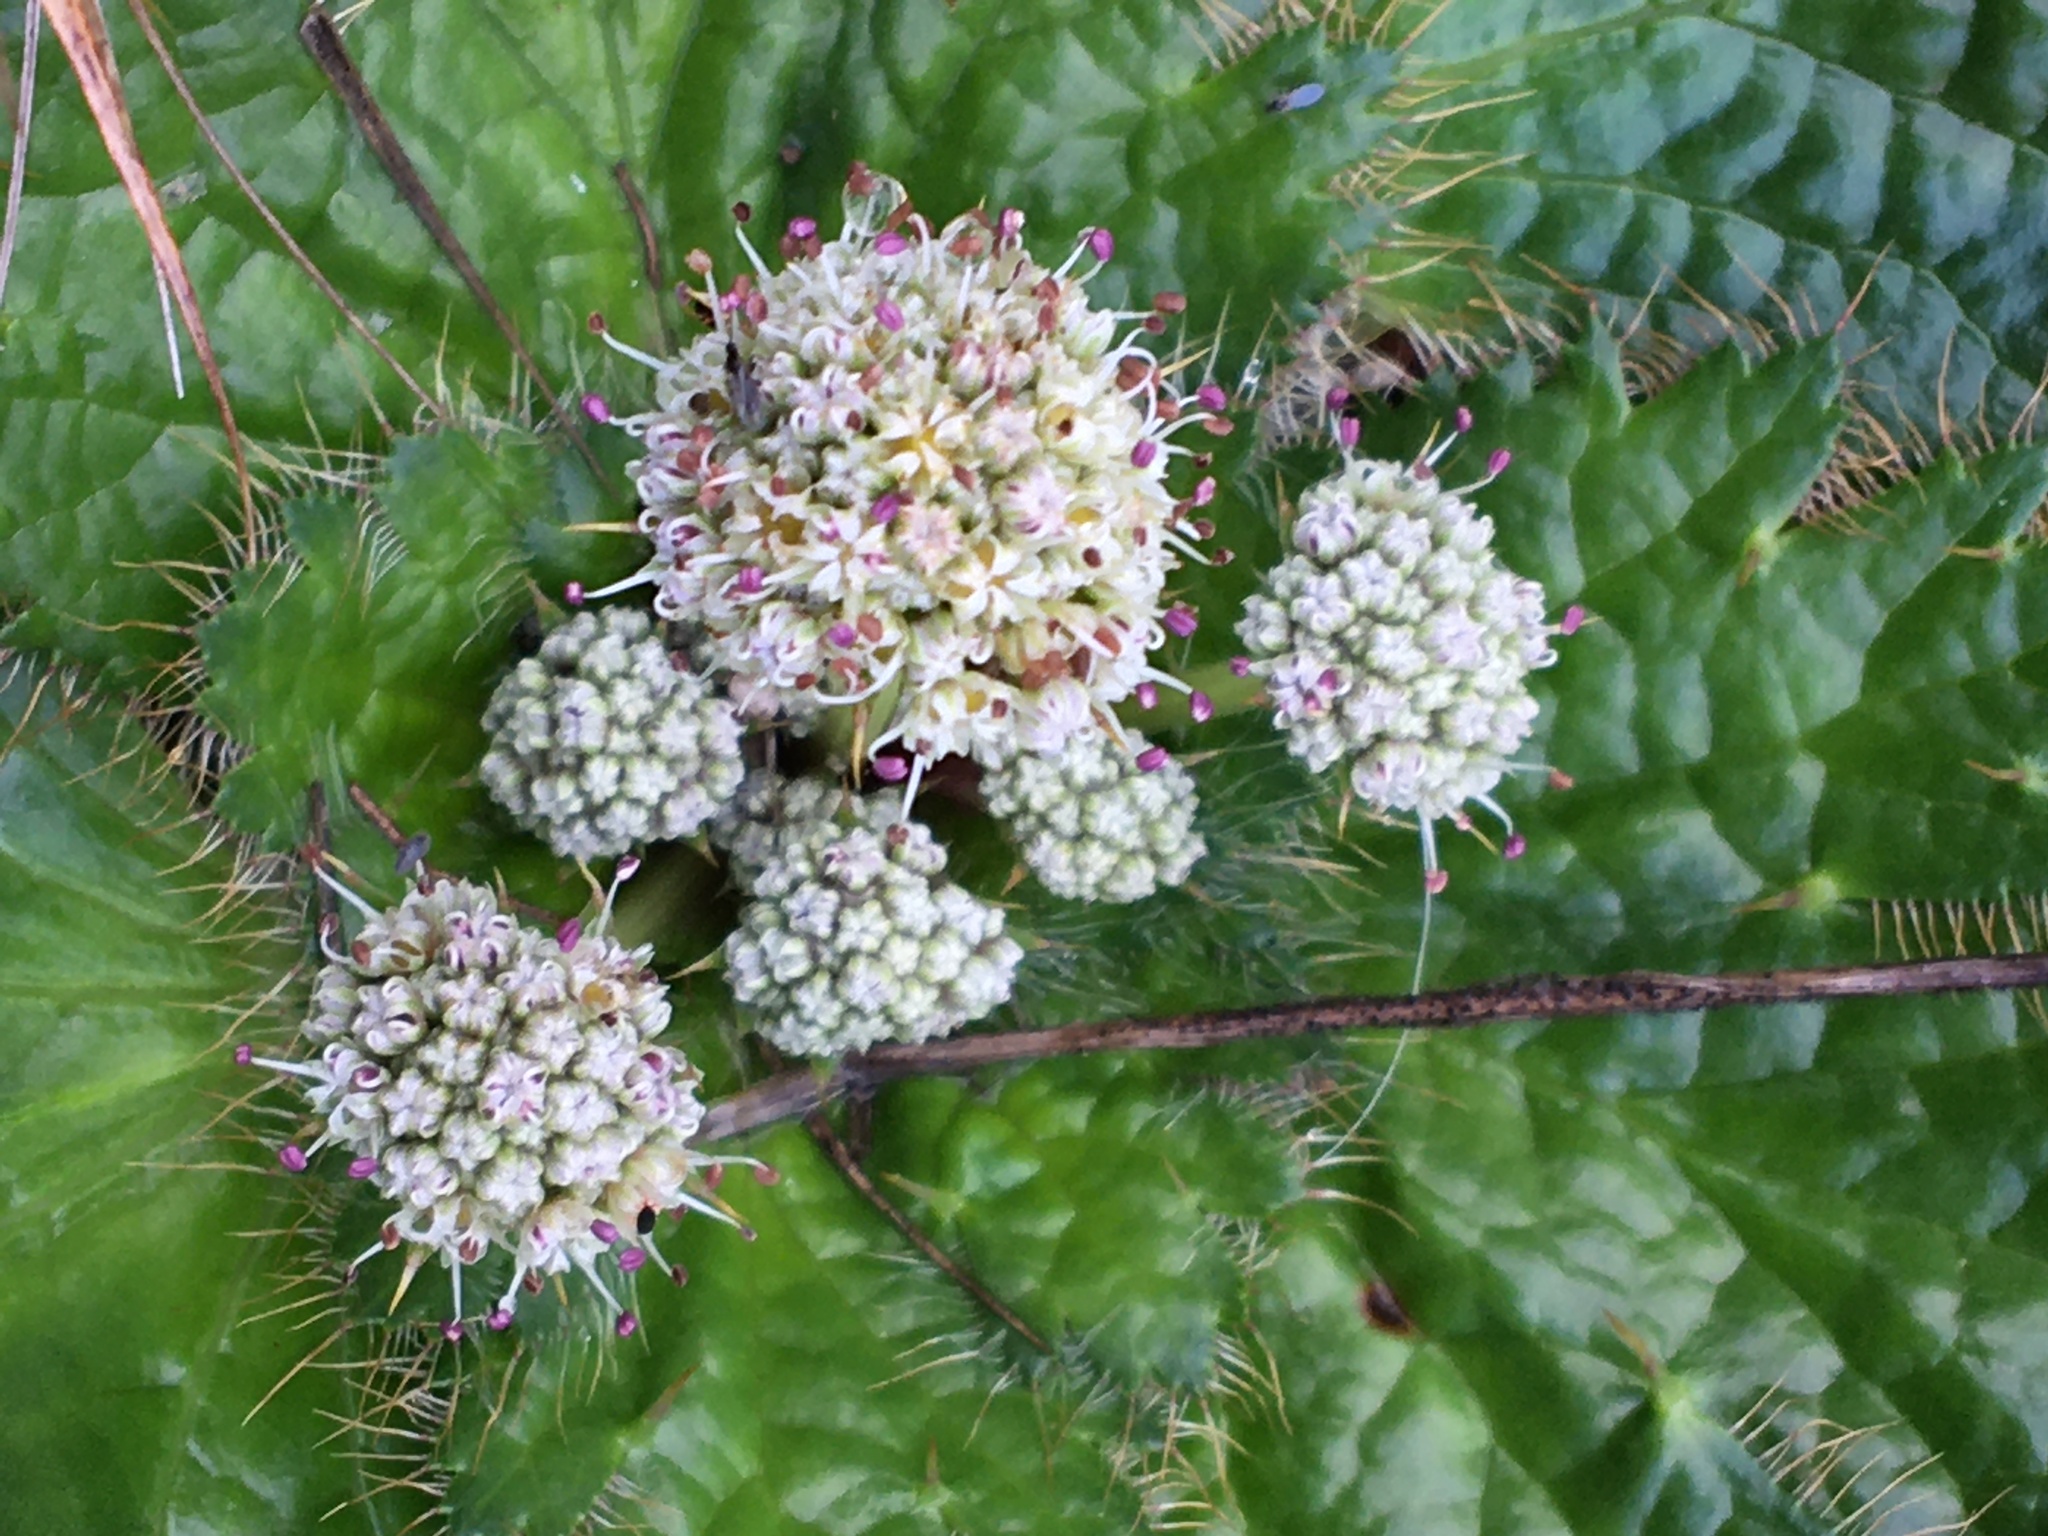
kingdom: Plantae
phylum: Tracheophyta
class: Magnoliopsida
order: Apiales
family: Apiaceae
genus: Arctopus
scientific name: Arctopus echinatus
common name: Platdoring
